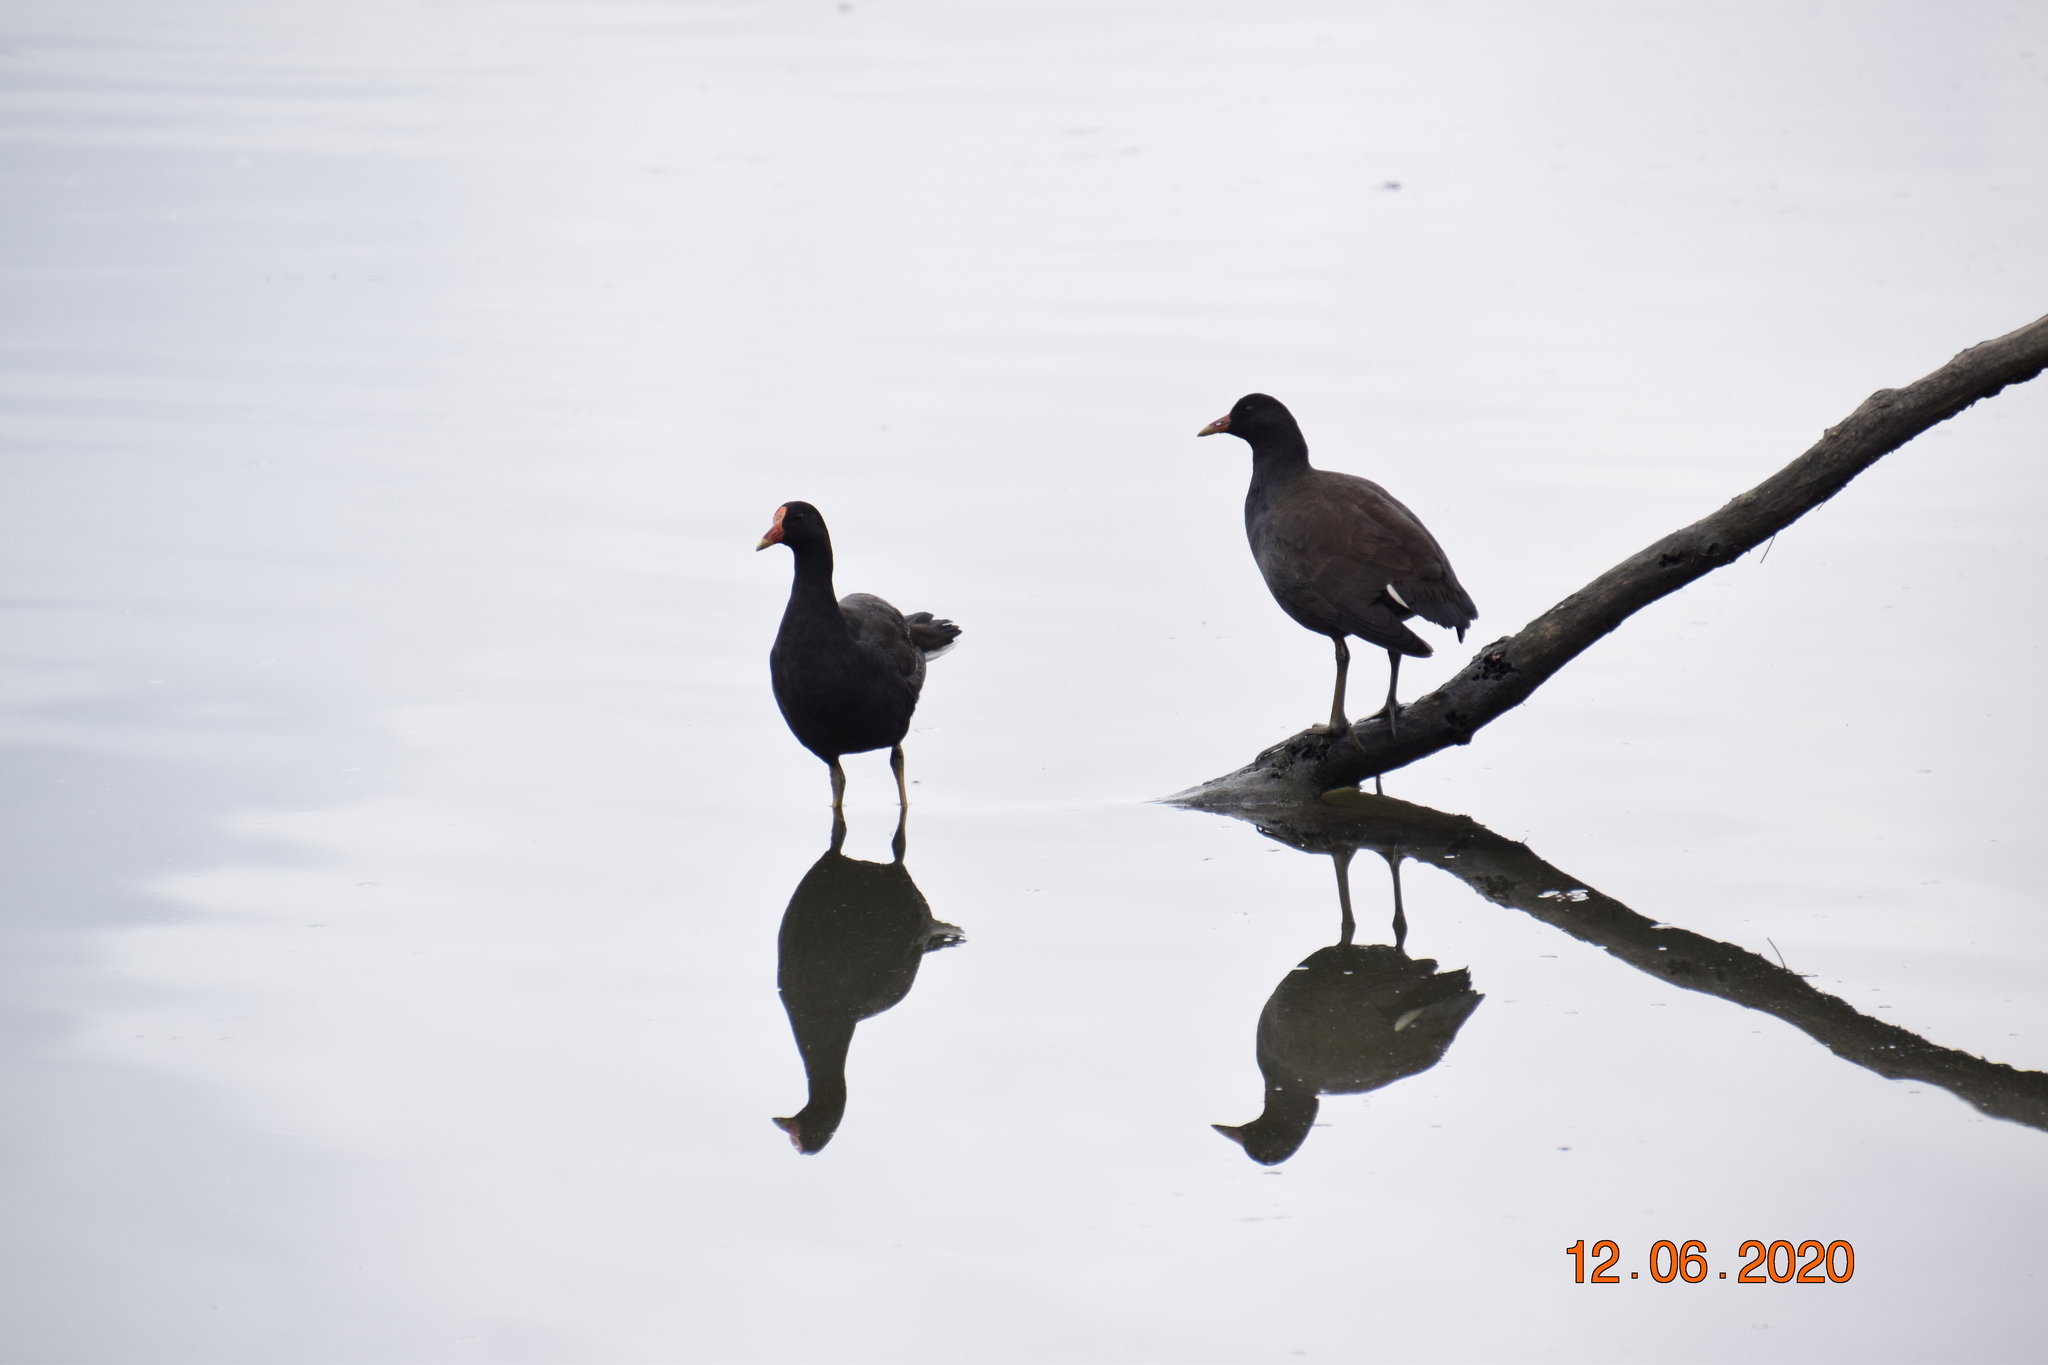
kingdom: Animalia
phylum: Chordata
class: Aves
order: Gruiformes
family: Rallidae
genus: Gallinula
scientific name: Gallinula tenebrosa
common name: Dusky moorhen
